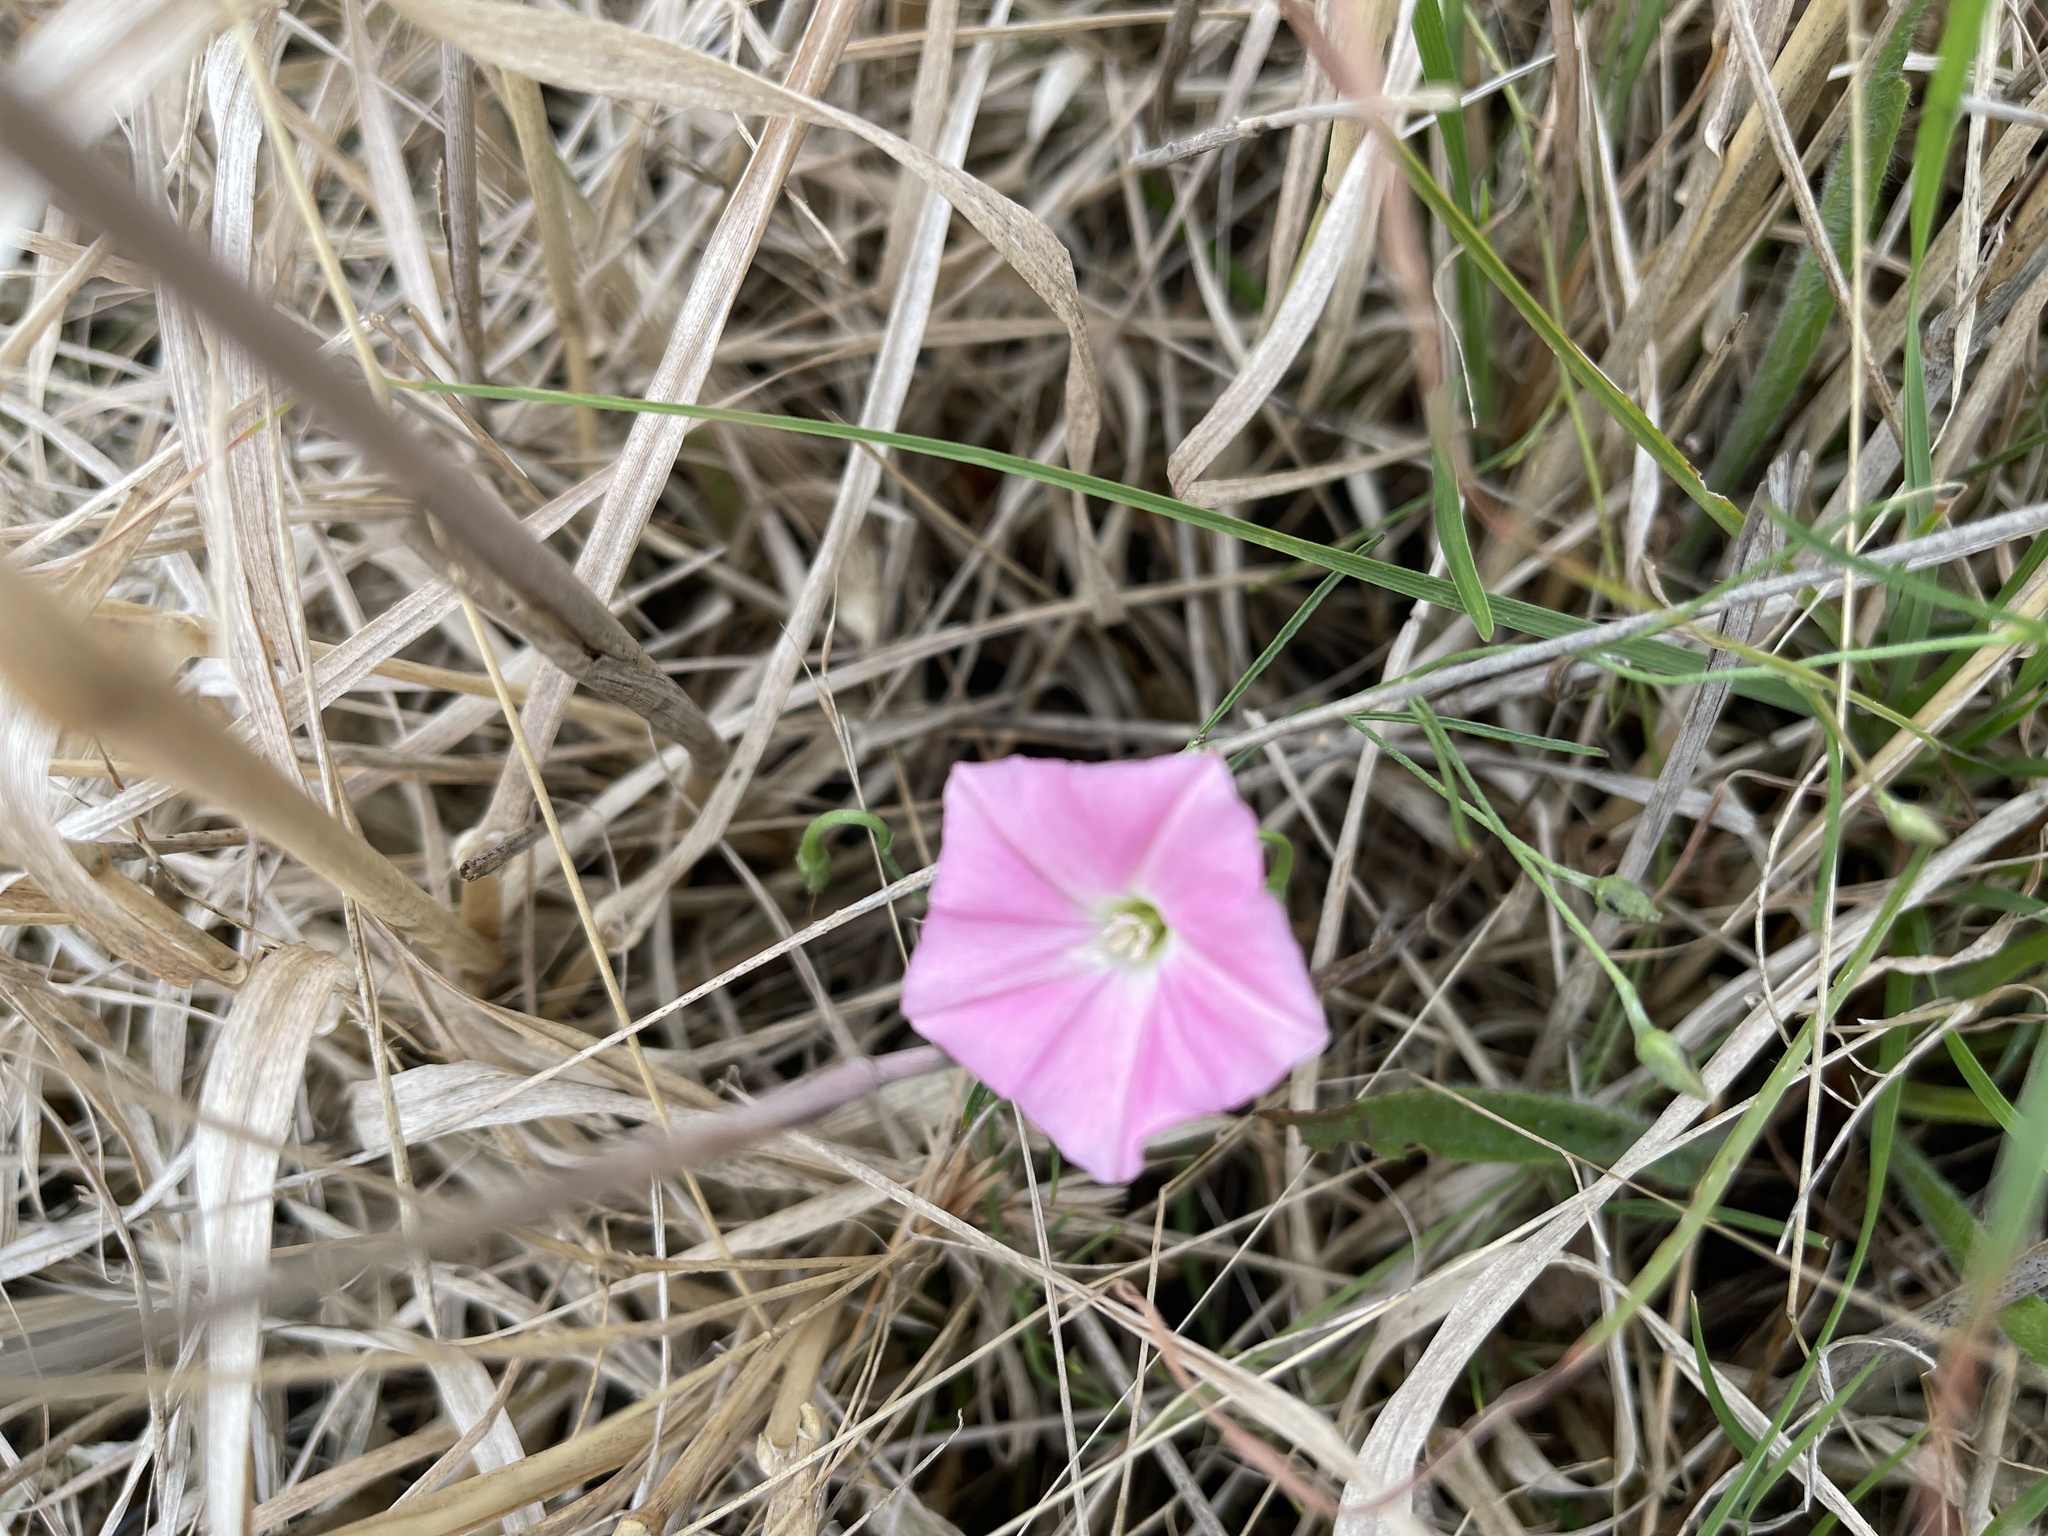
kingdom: Plantae
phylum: Tracheophyta
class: Magnoliopsida
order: Solanales
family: Convolvulaceae
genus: Convolvulus
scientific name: Convolvulus angustissimus
